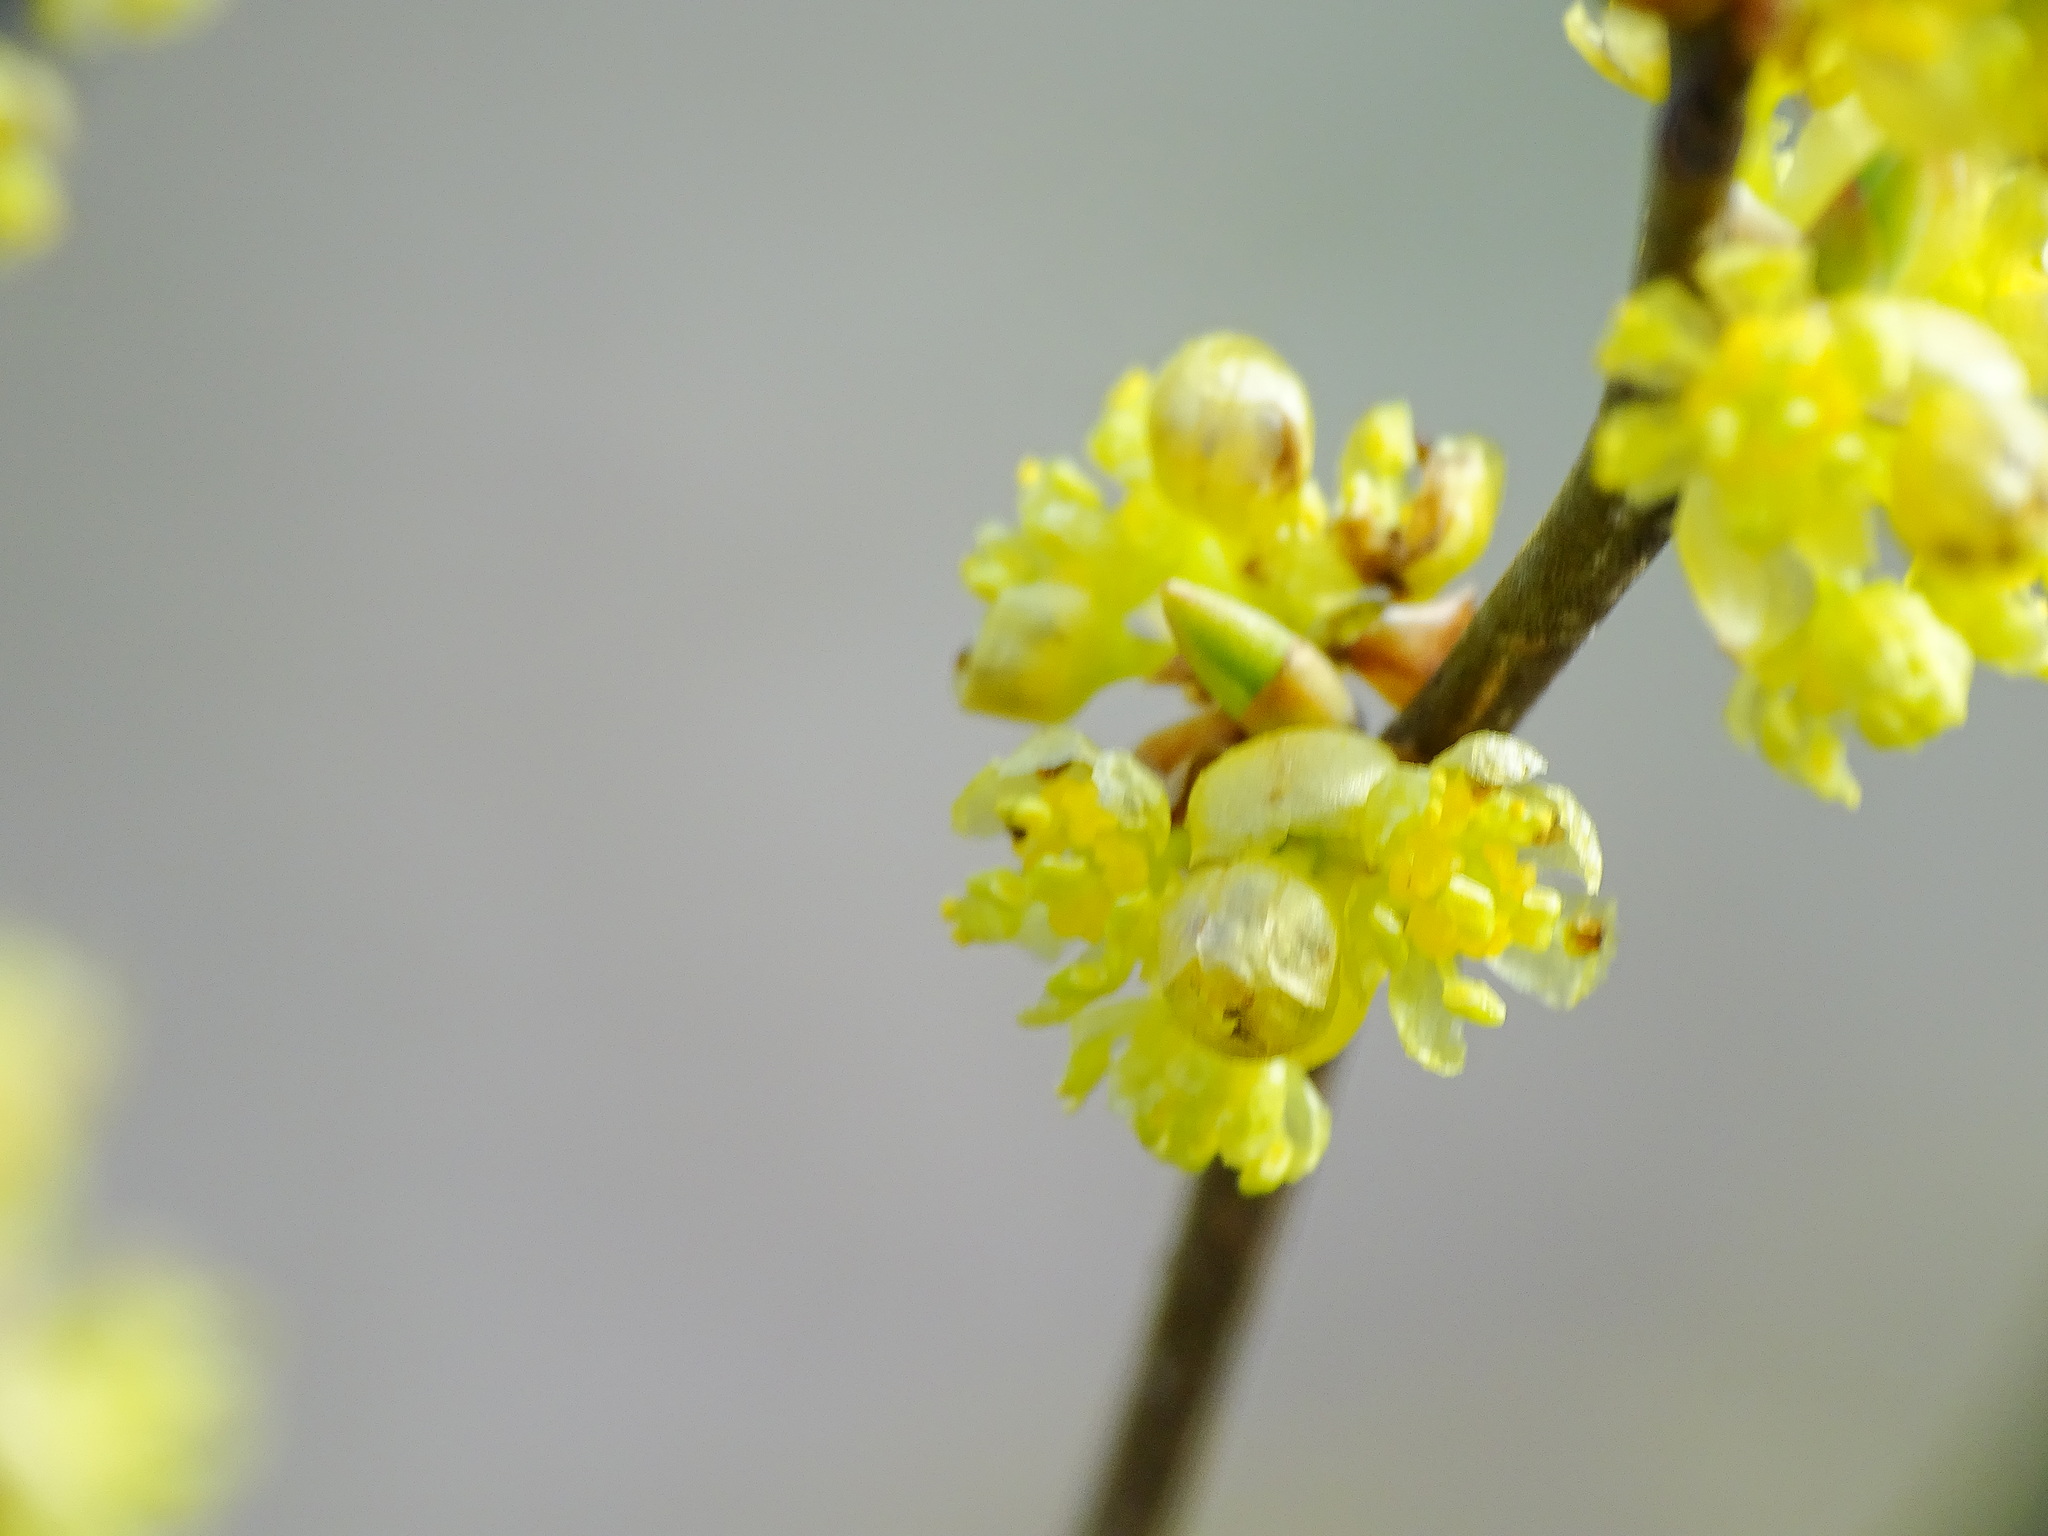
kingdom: Plantae
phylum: Tracheophyta
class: Magnoliopsida
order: Laurales
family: Lauraceae
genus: Lindera
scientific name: Lindera benzoin
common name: Spicebush
